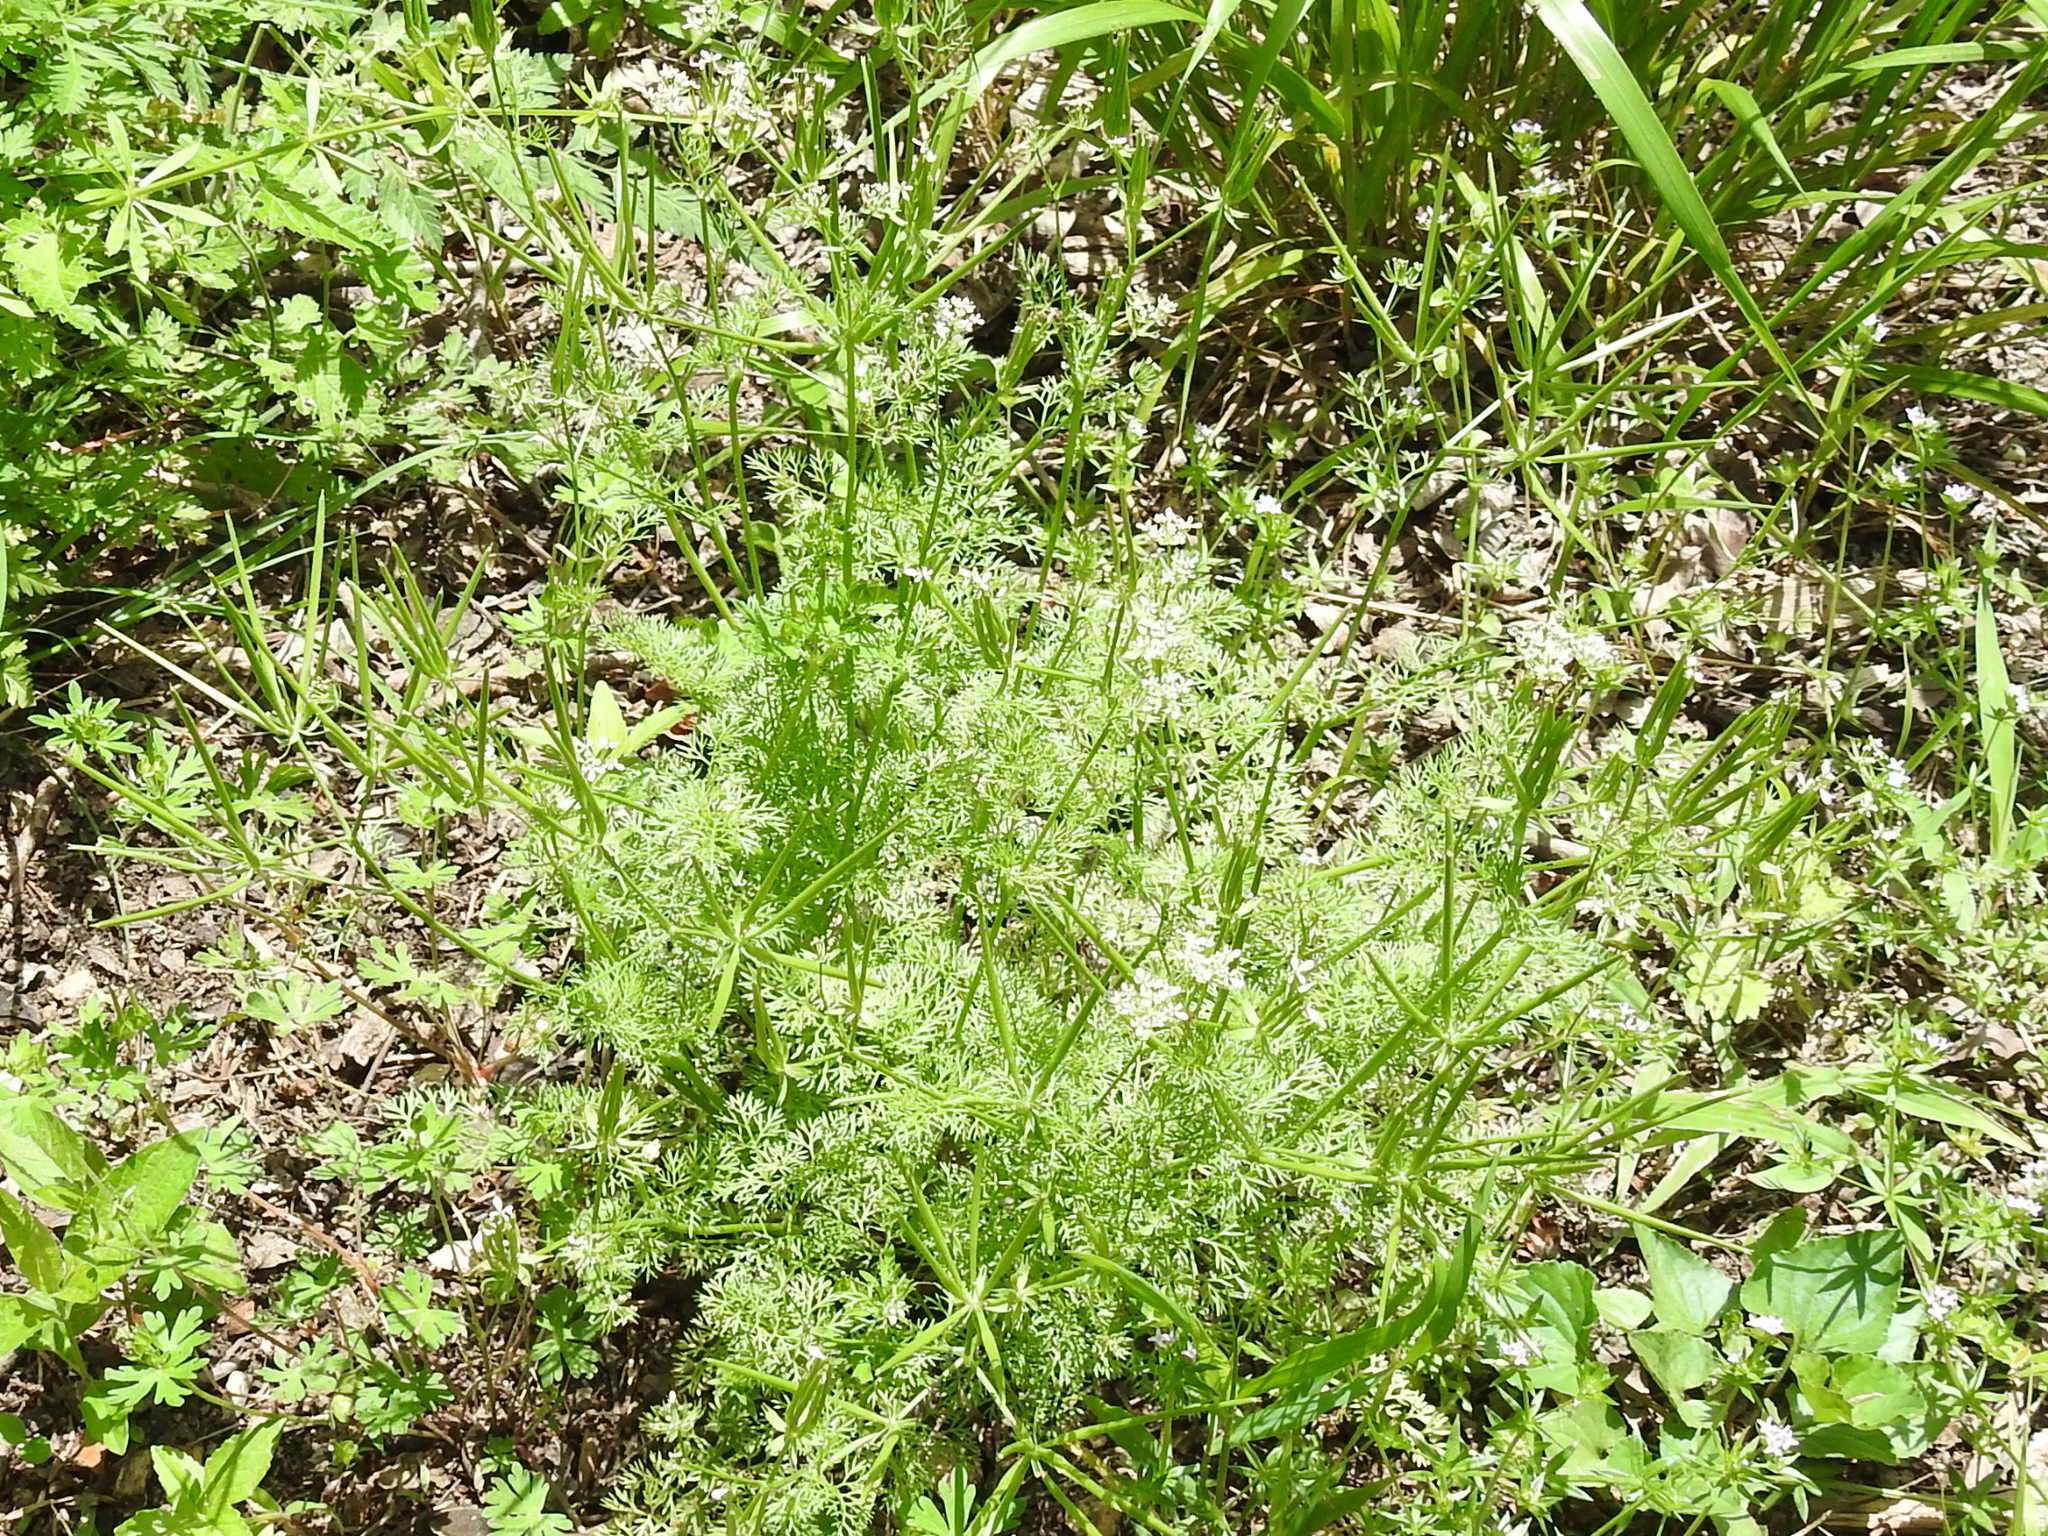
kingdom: Plantae
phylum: Tracheophyta
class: Magnoliopsida
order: Apiales
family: Apiaceae
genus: Scandix
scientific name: Scandix pecten-veneris
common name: Shepherd's-needle
